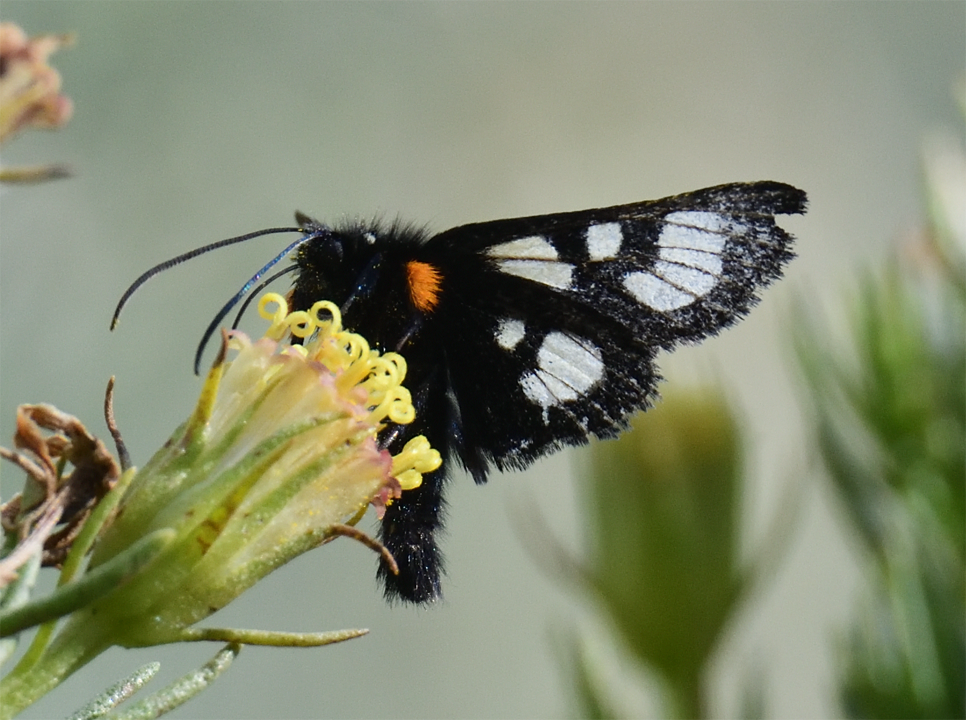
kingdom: Animalia
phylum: Arthropoda
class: Insecta
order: Lepidoptera
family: Noctuidae
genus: Alypia
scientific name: Alypia ridingsii
